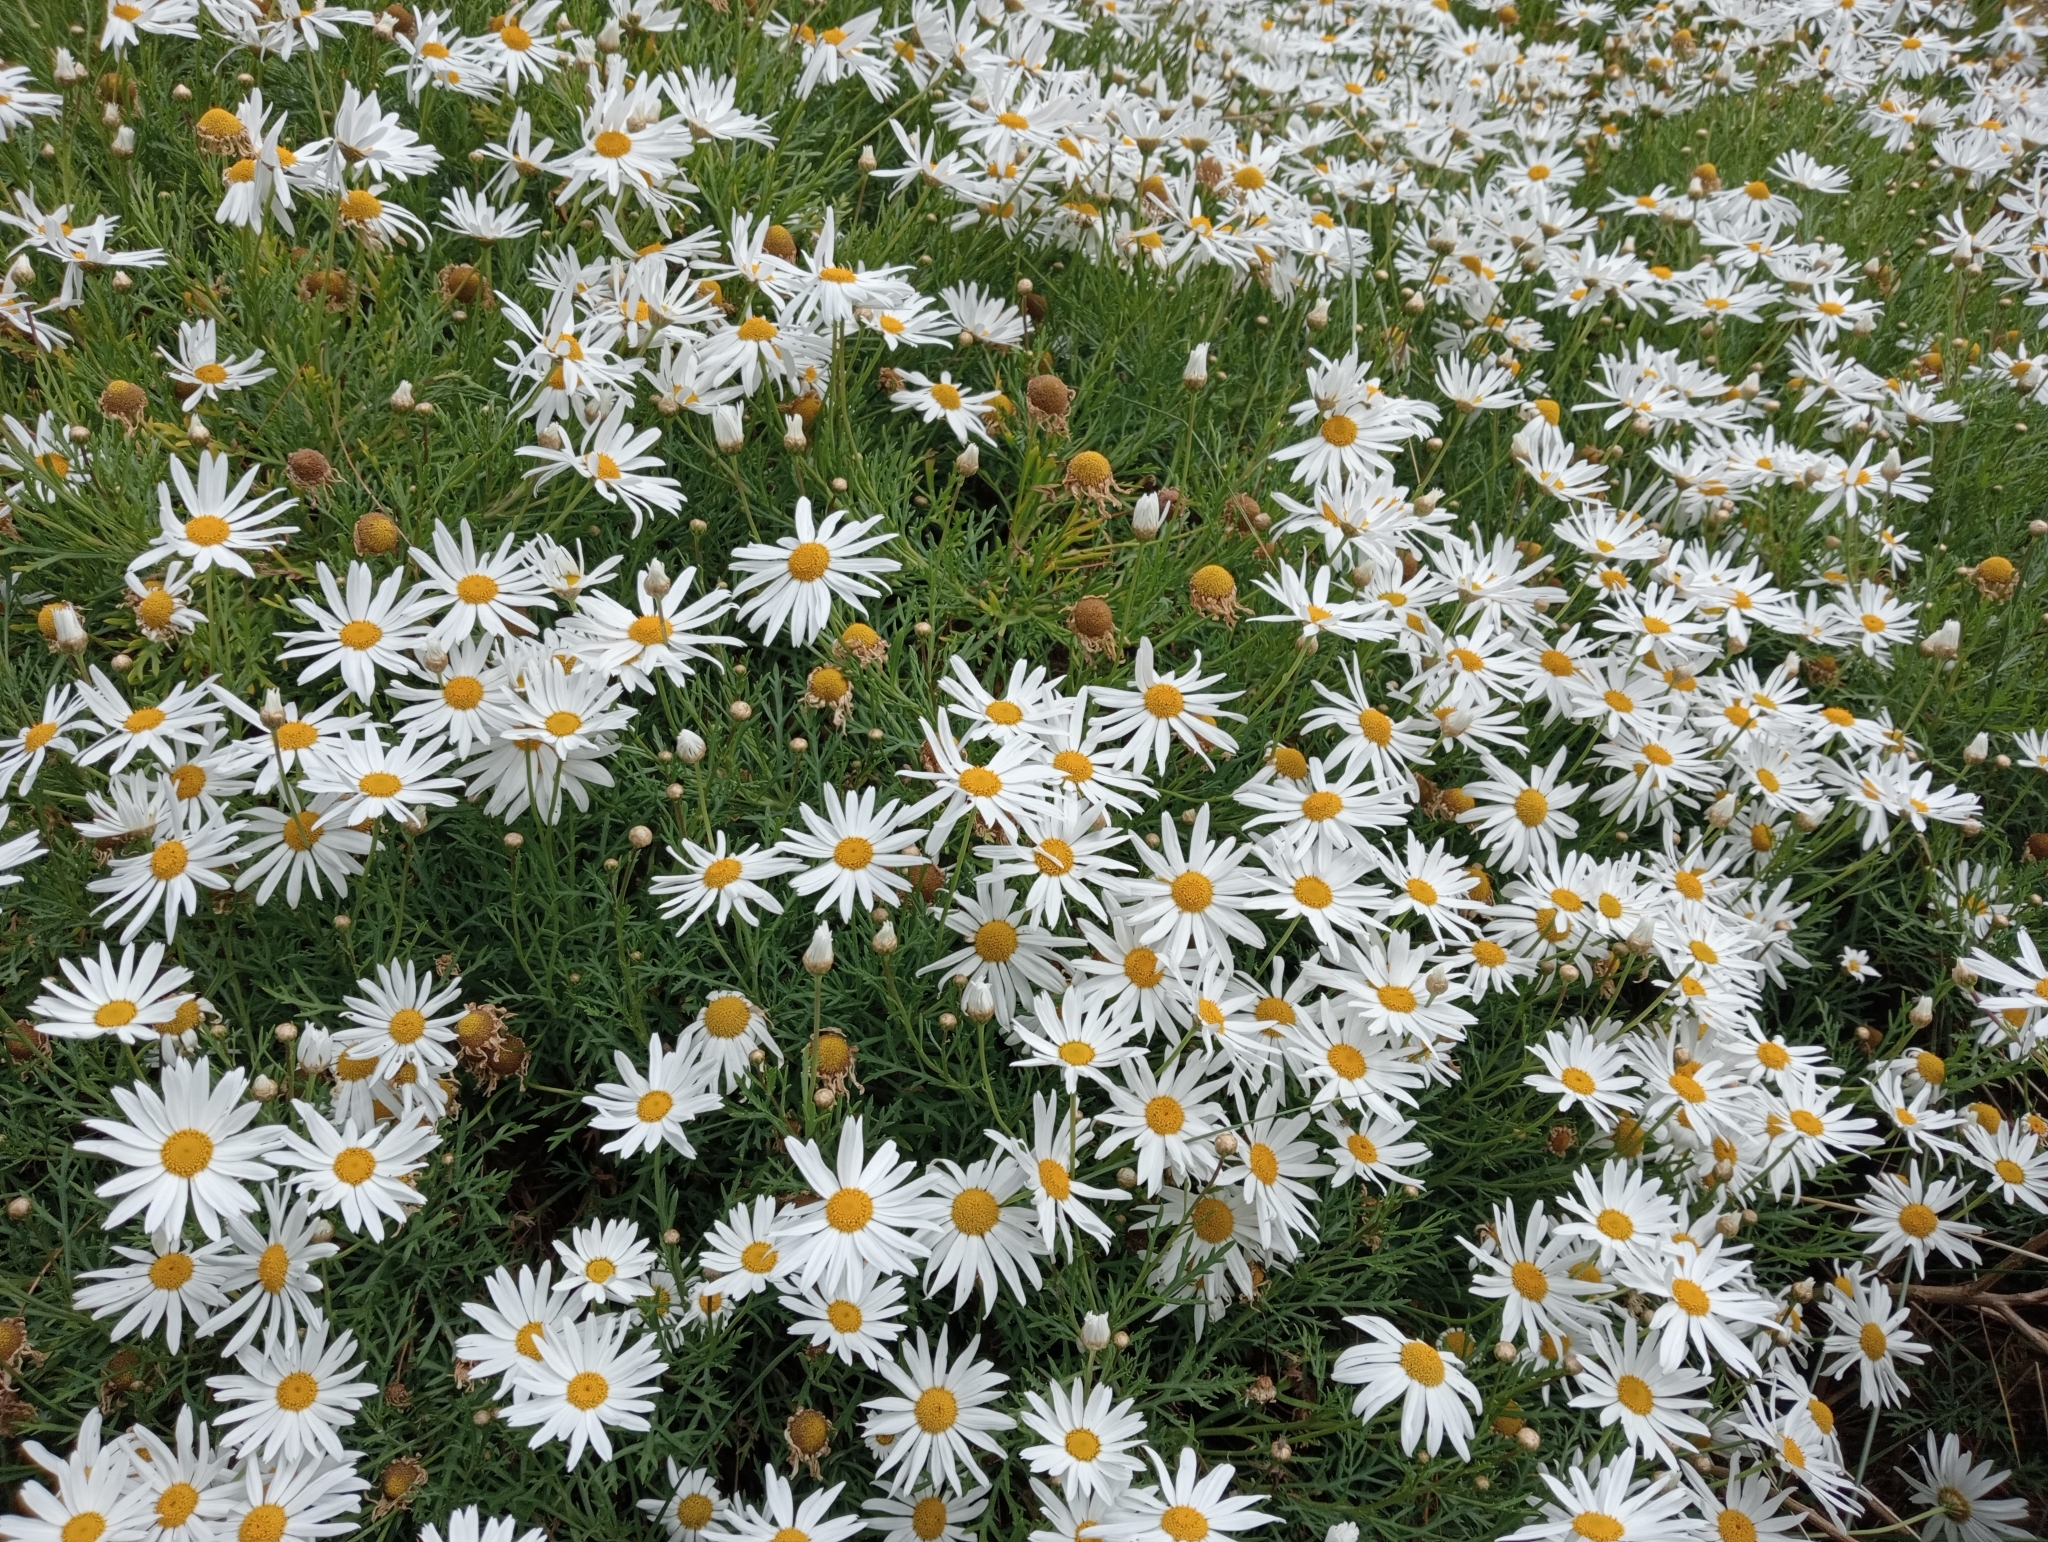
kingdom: Plantae
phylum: Tracheophyta
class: Magnoliopsida
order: Asterales
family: Asteraceae
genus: Argyranthemum
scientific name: Argyranthemum frutescens
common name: Paris daisy
